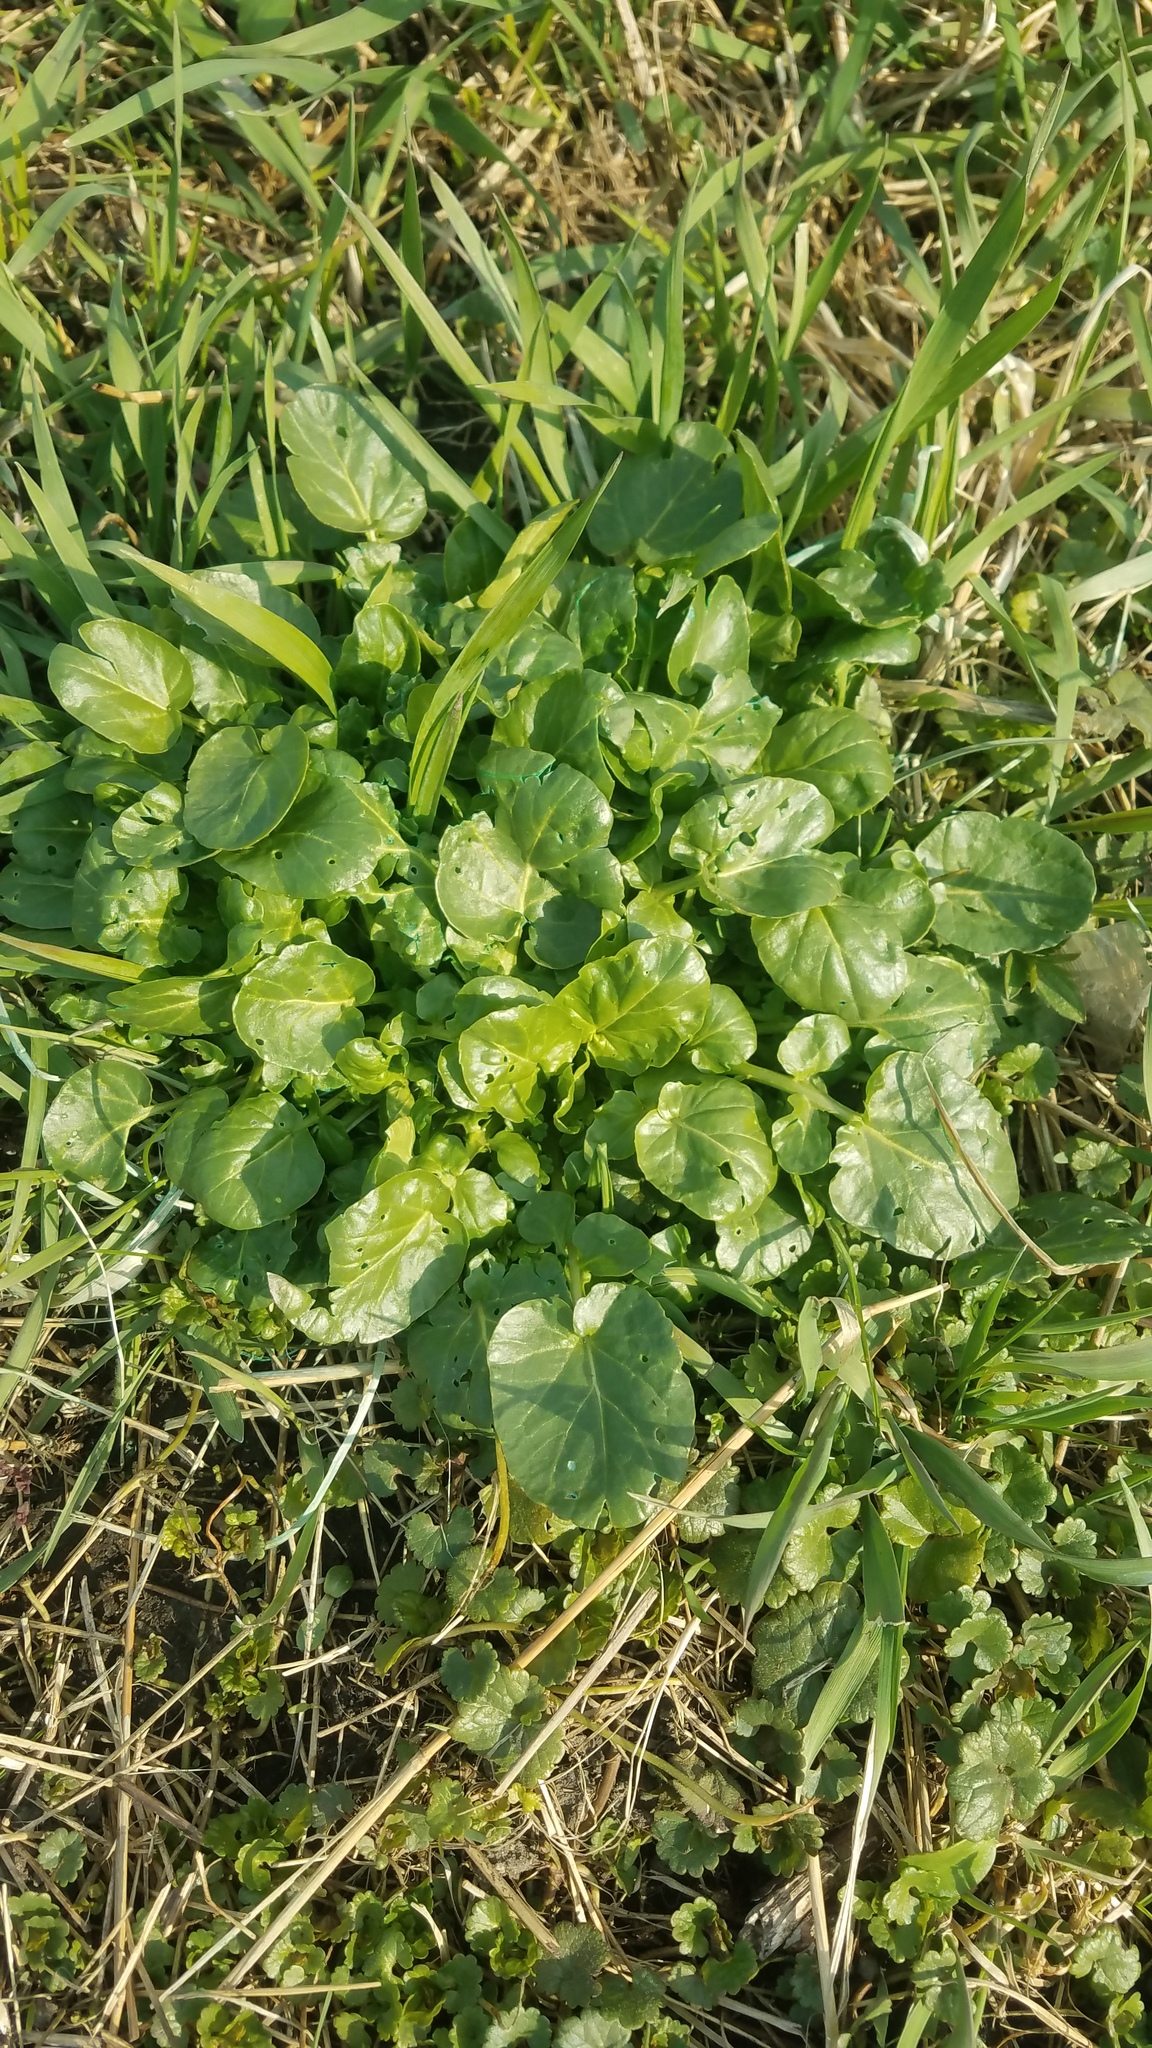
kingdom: Plantae
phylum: Tracheophyta
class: Magnoliopsida
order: Brassicales
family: Brassicaceae
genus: Barbarea
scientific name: Barbarea vulgaris
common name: Cressy-greens
